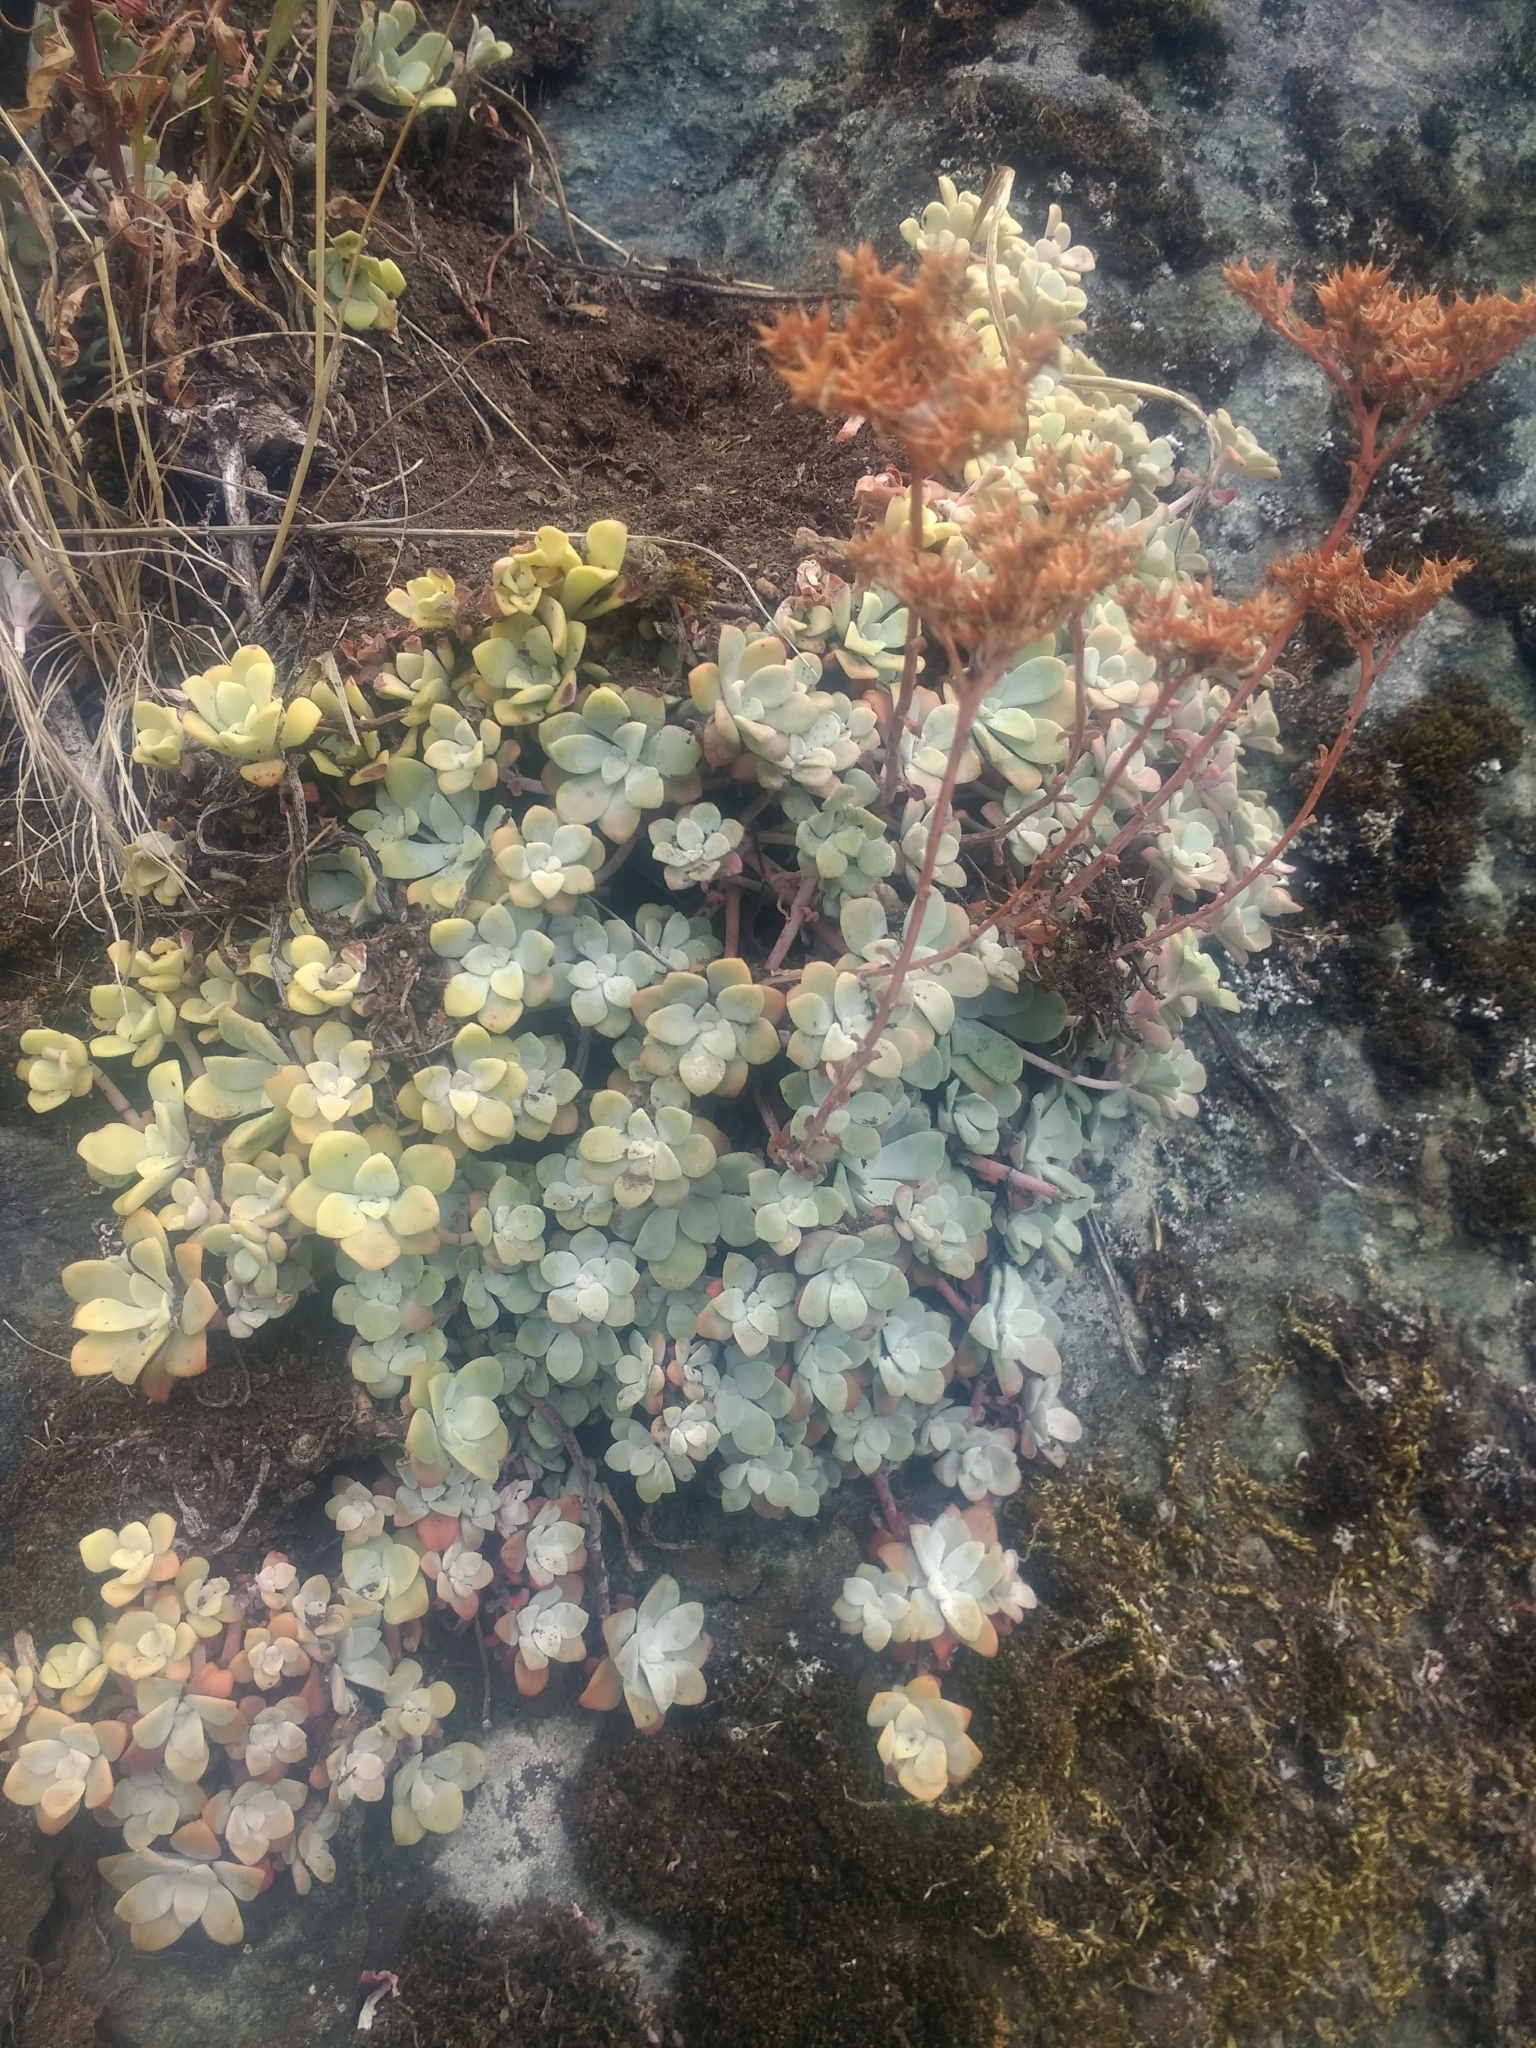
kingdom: Plantae
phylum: Tracheophyta
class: Magnoliopsida
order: Saxifragales
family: Crassulaceae
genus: Sedum
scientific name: Sedum spathulifolium
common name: Colorado stonecrop
